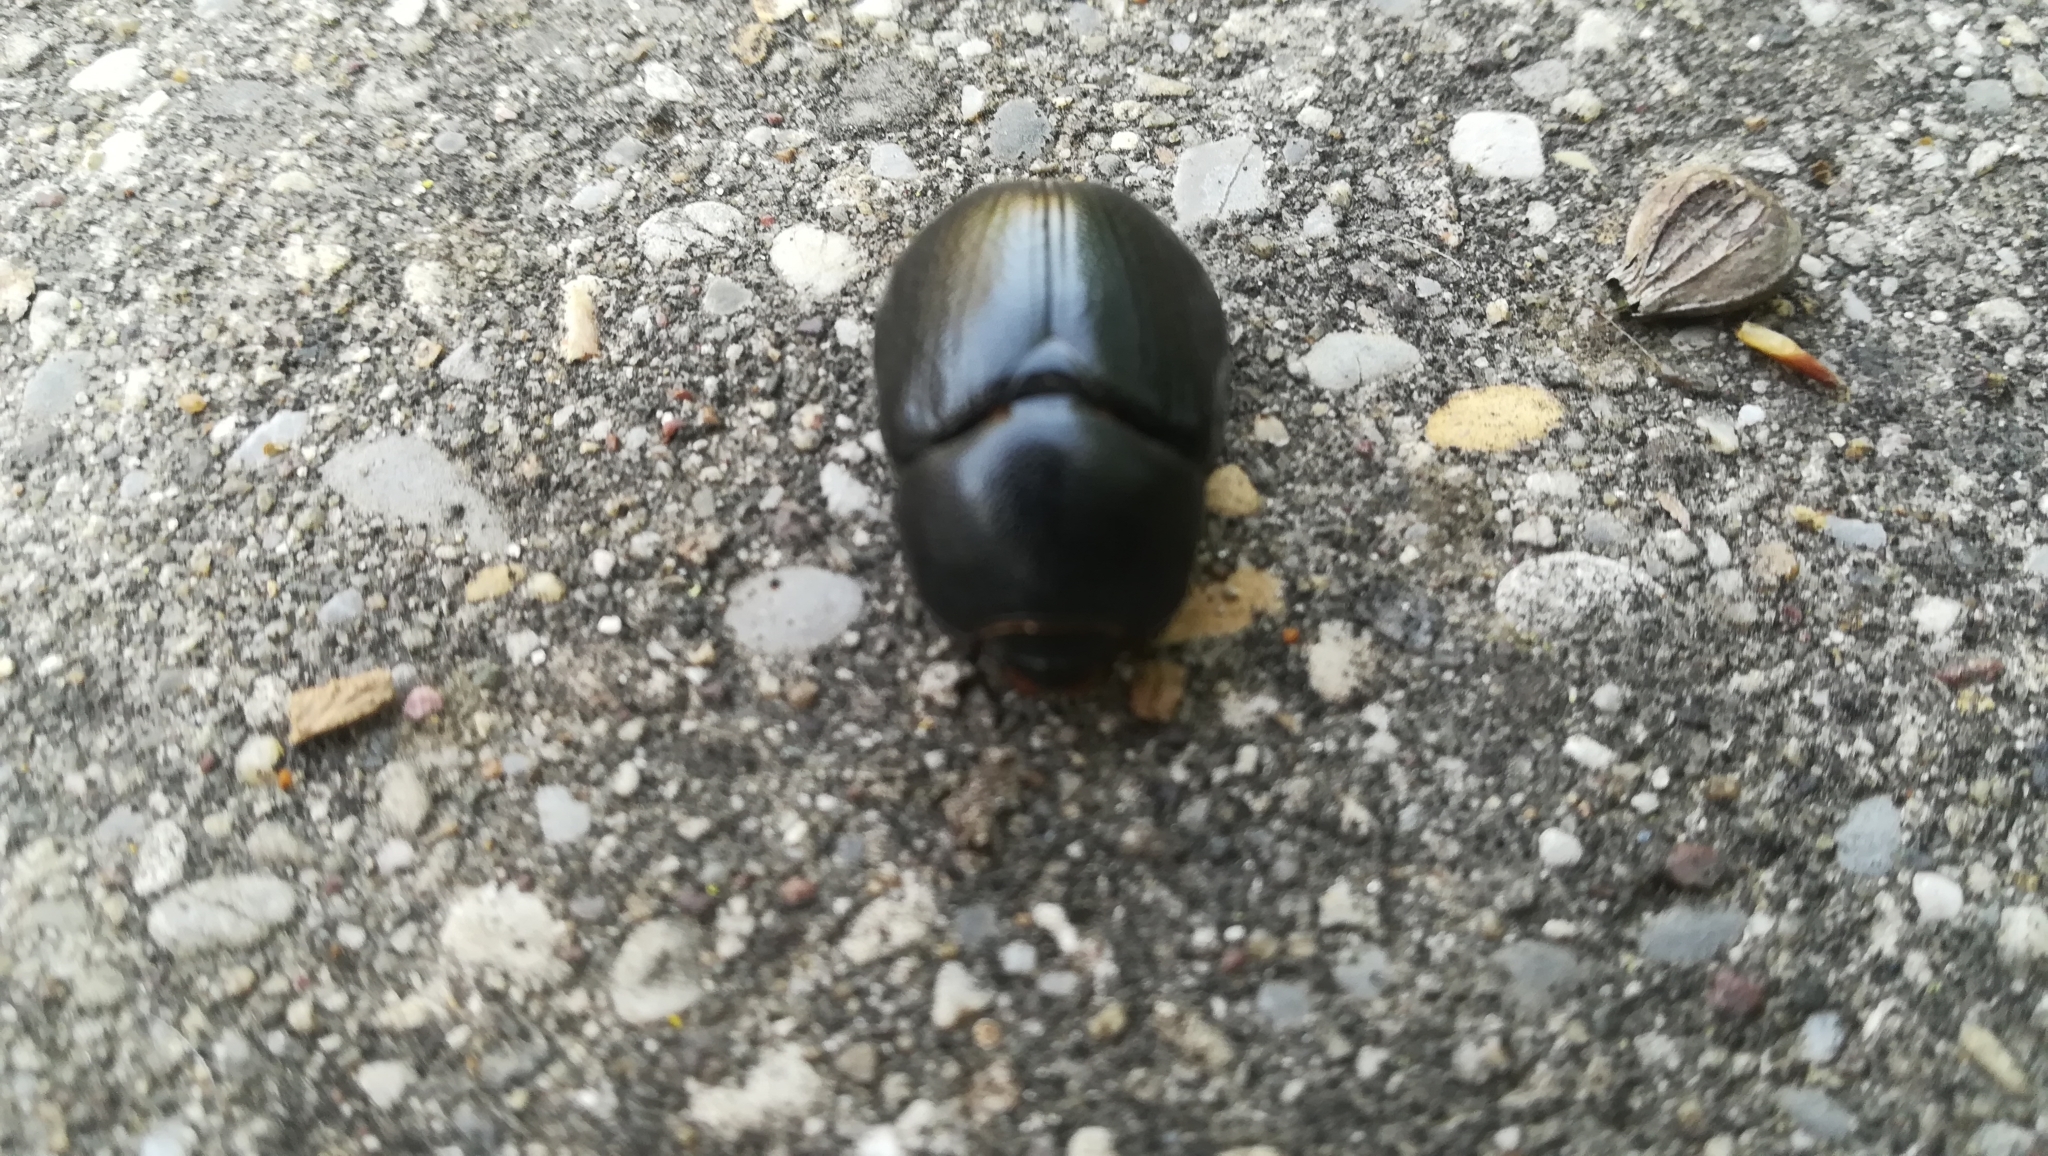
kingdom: Animalia
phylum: Arthropoda
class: Insecta
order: Coleoptera
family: Geotrupidae
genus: Anoplotrupes
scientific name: Anoplotrupes stercorosus
